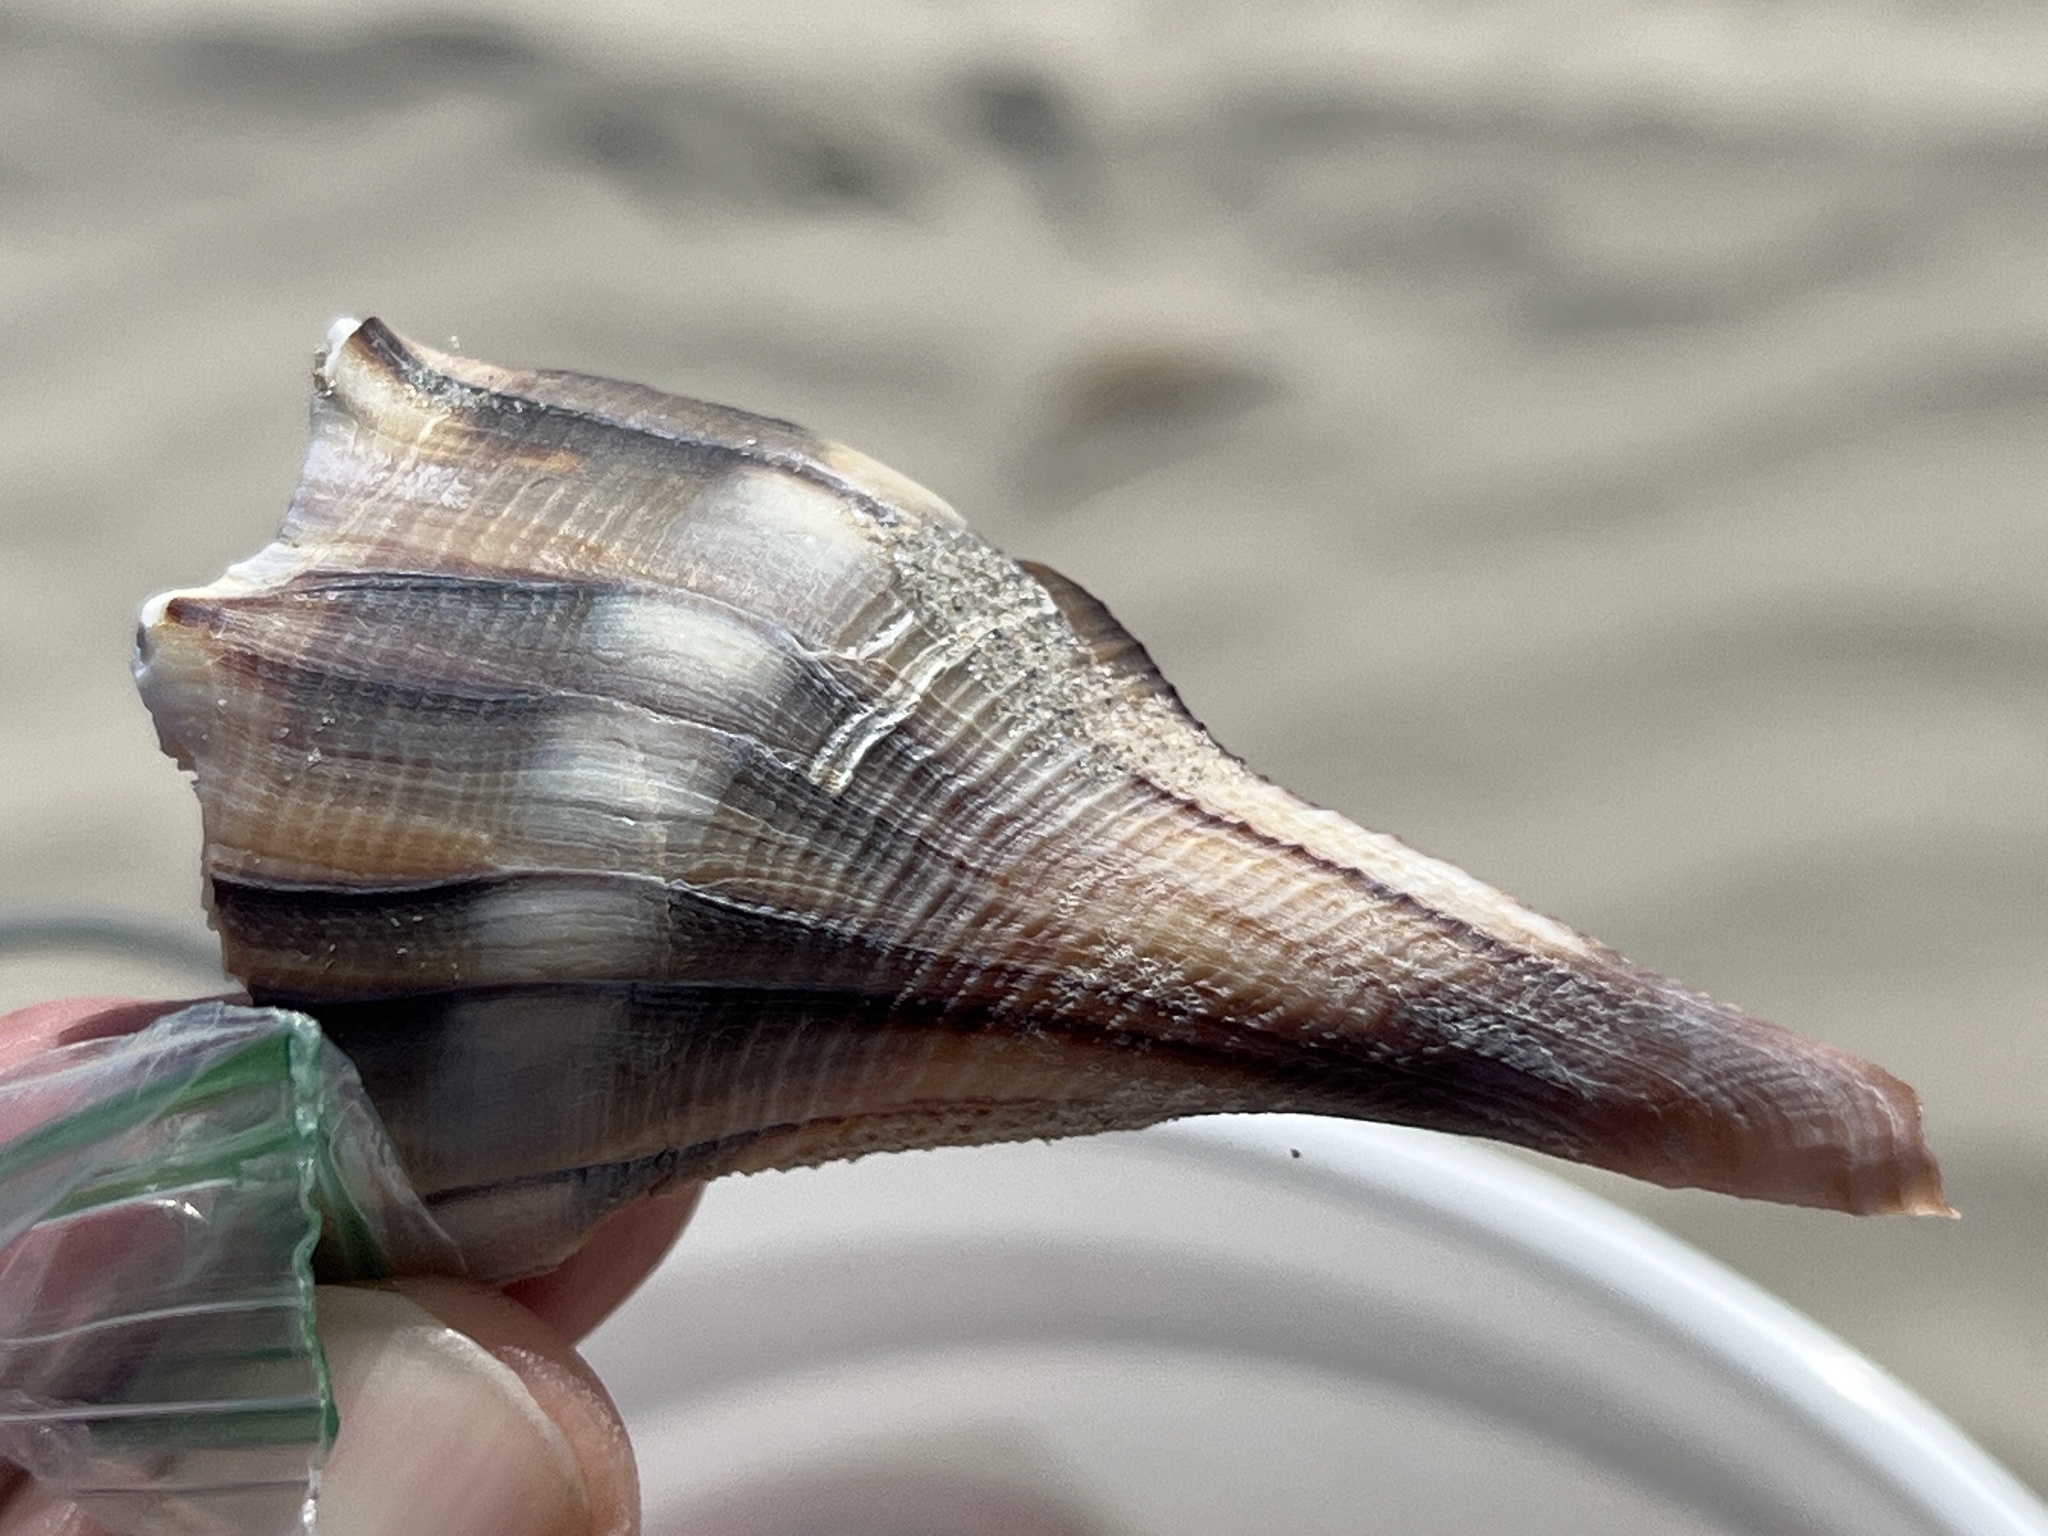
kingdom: Animalia
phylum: Mollusca
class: Gastropoda
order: Neogastropoda
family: Busyconidae
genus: Sinistrofulgur
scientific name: Sinistrofulgur pulleyi
